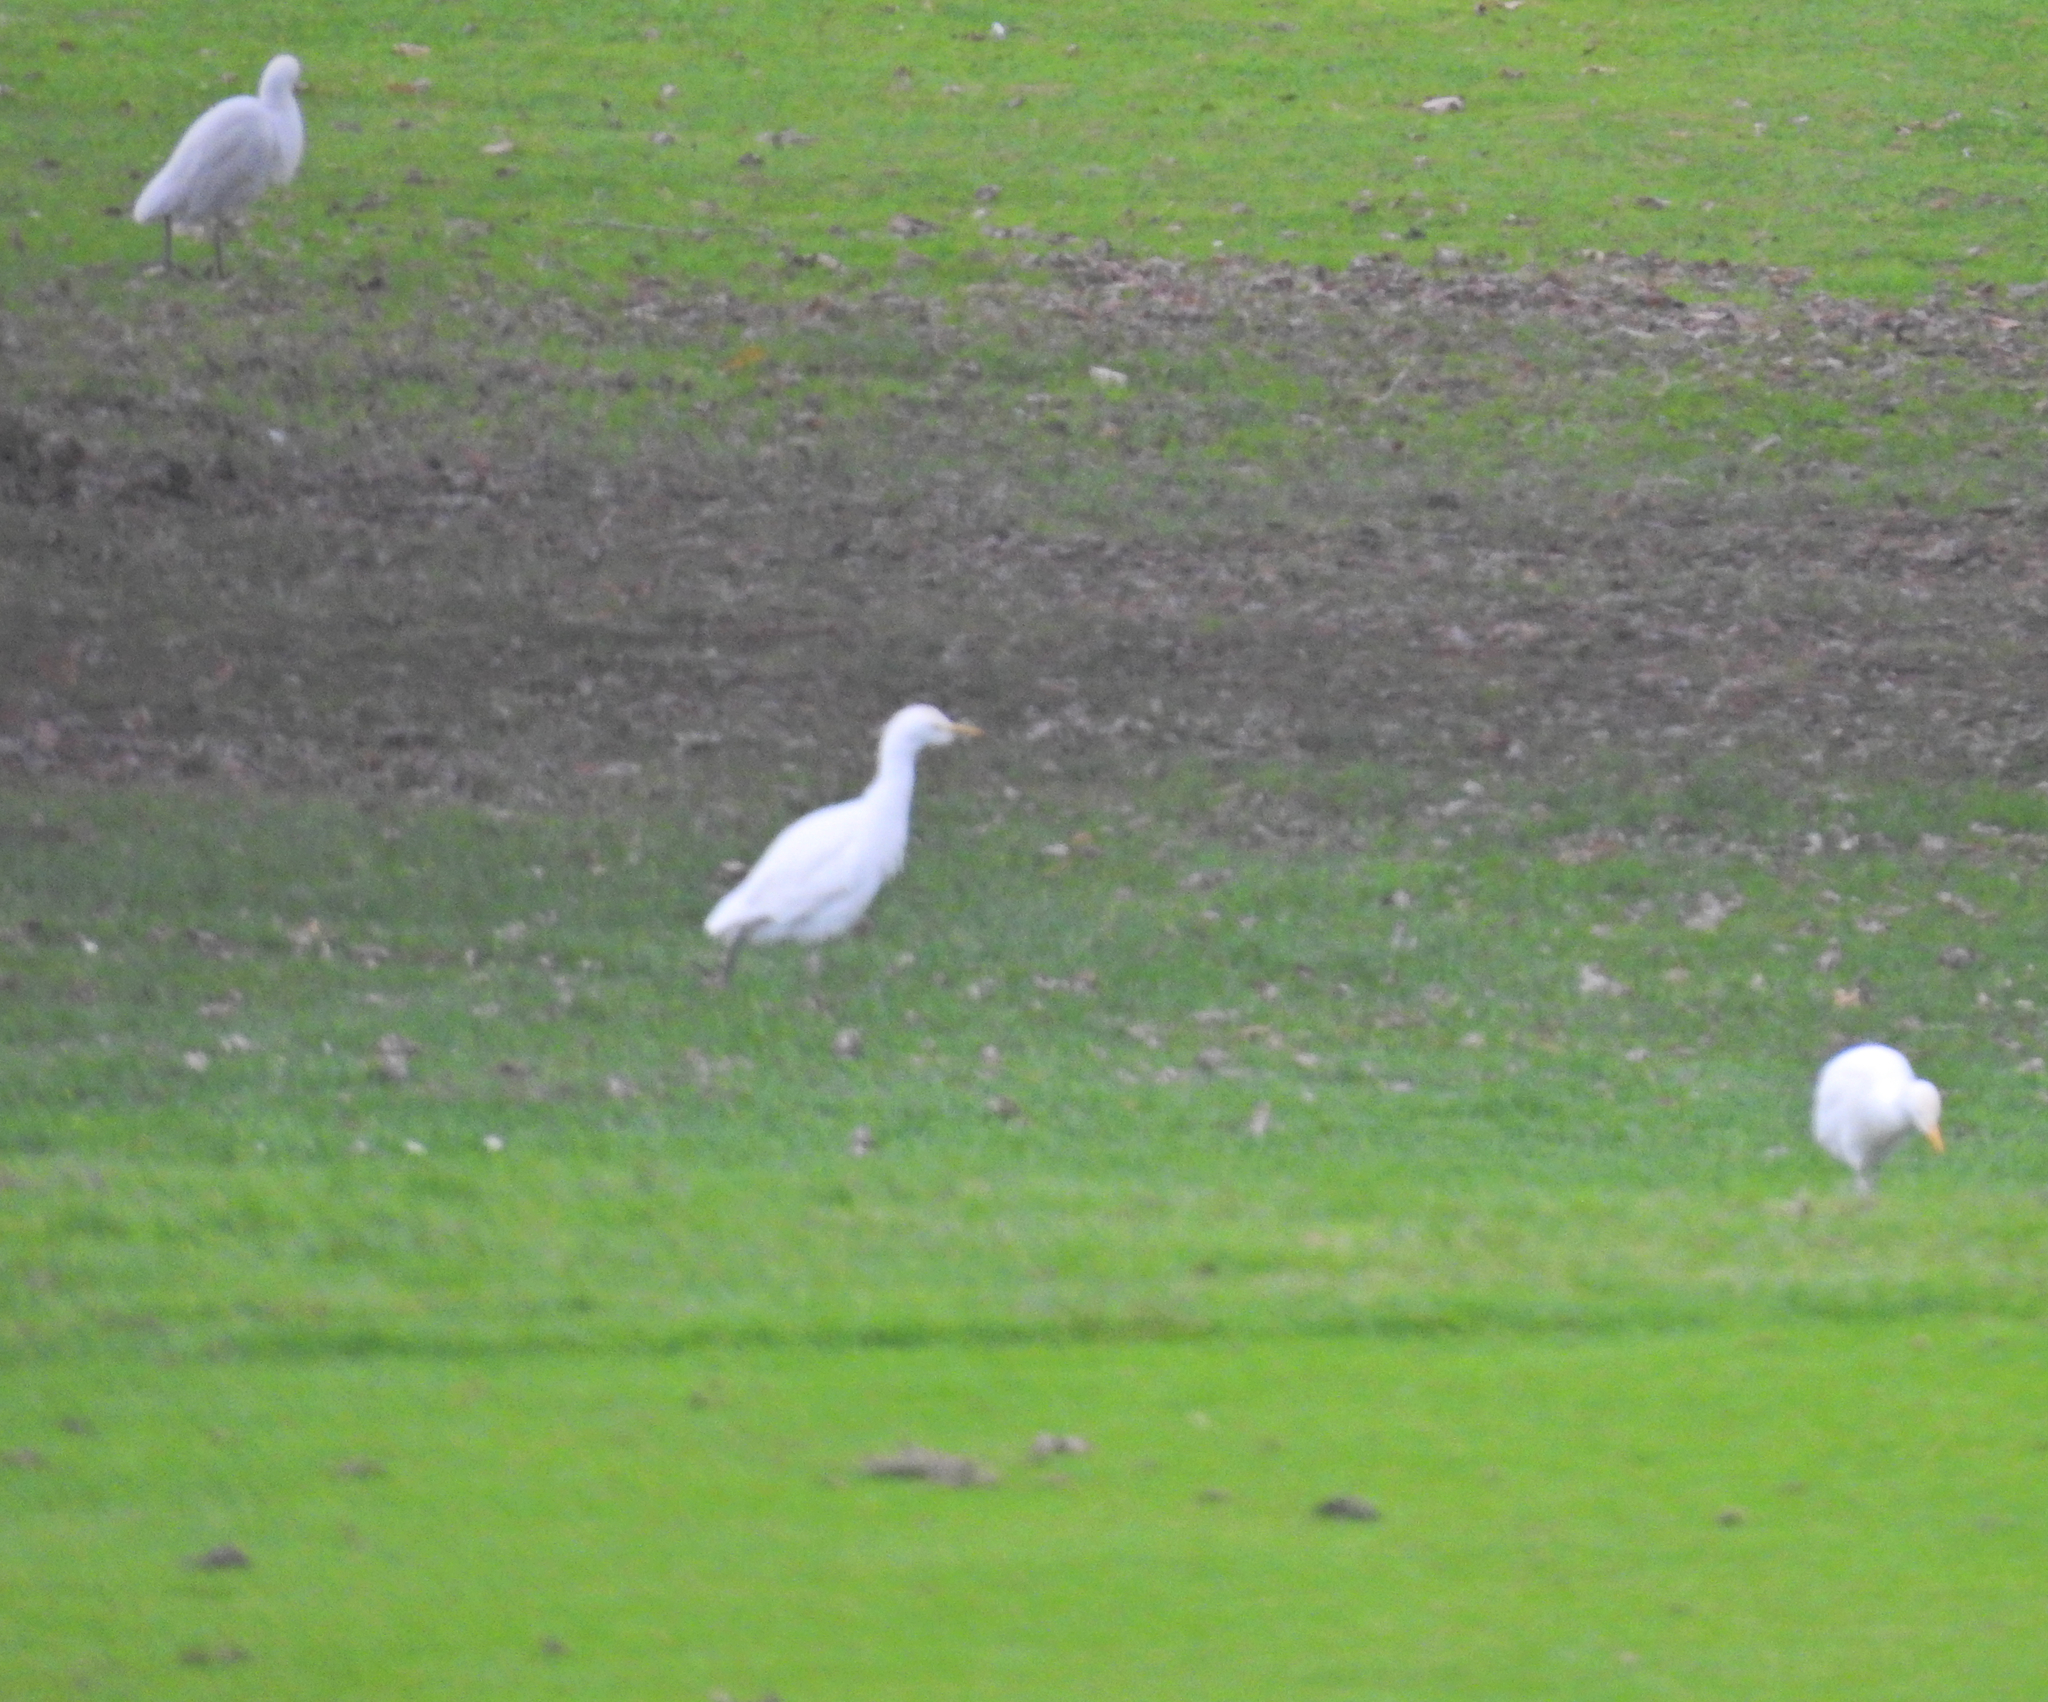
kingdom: Animalia
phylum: Chordata
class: Aves
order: Pelecaniformes
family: Ardeidae
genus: Bubulcus
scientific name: Bubulcus ibis
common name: Cattle egret
